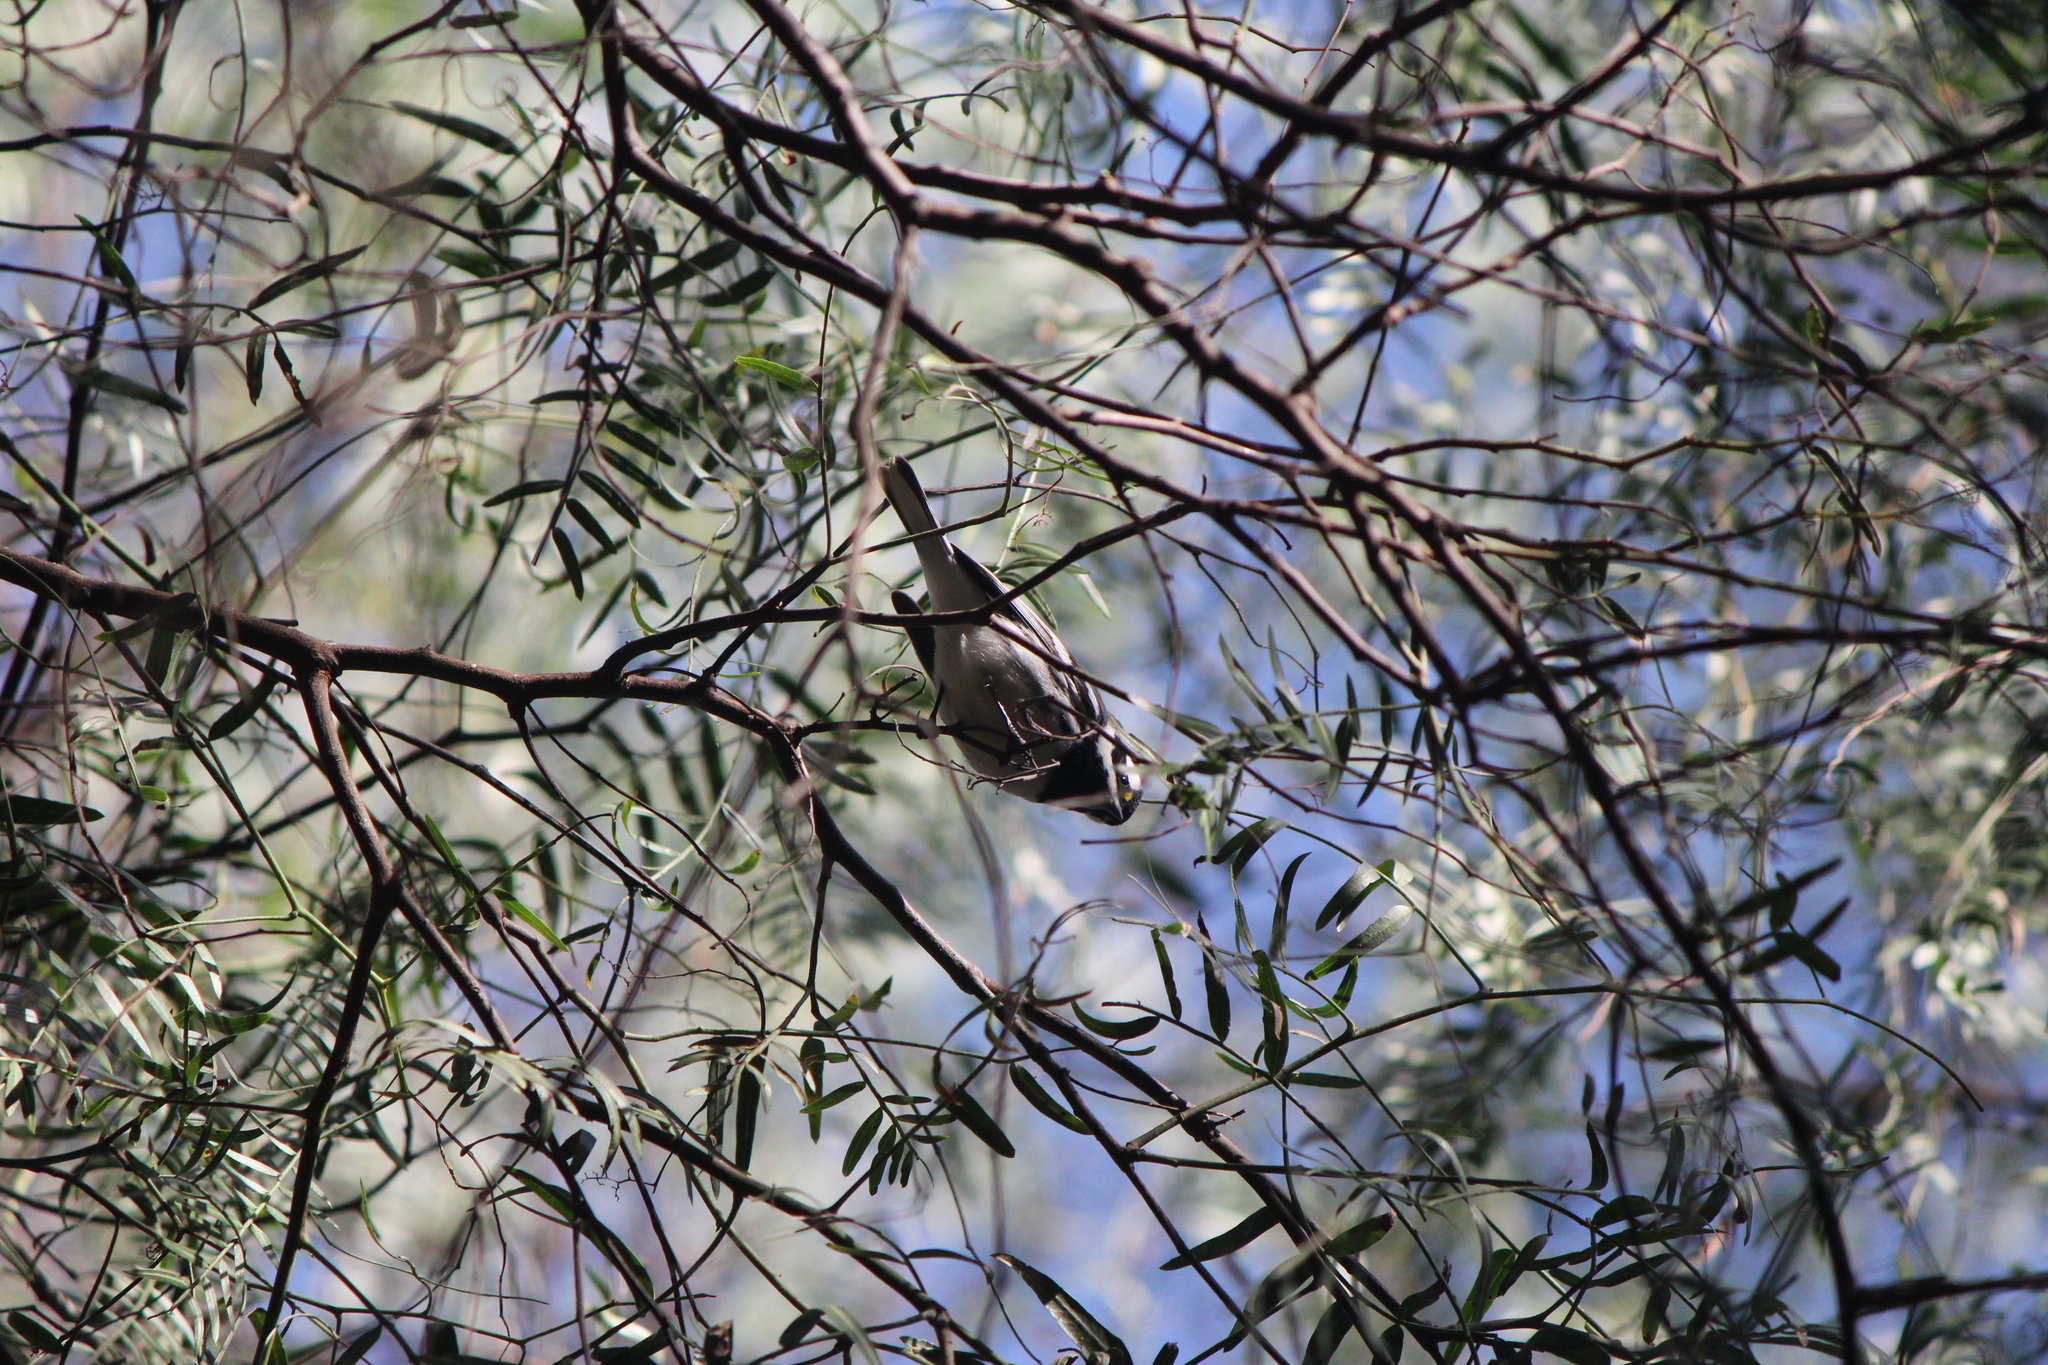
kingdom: Animalia
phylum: Chordata
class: Aves
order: Passeriformes
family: Parulidae
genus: Setophaga
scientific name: Setophaga nigrescens
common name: Black-throated gray warbler
